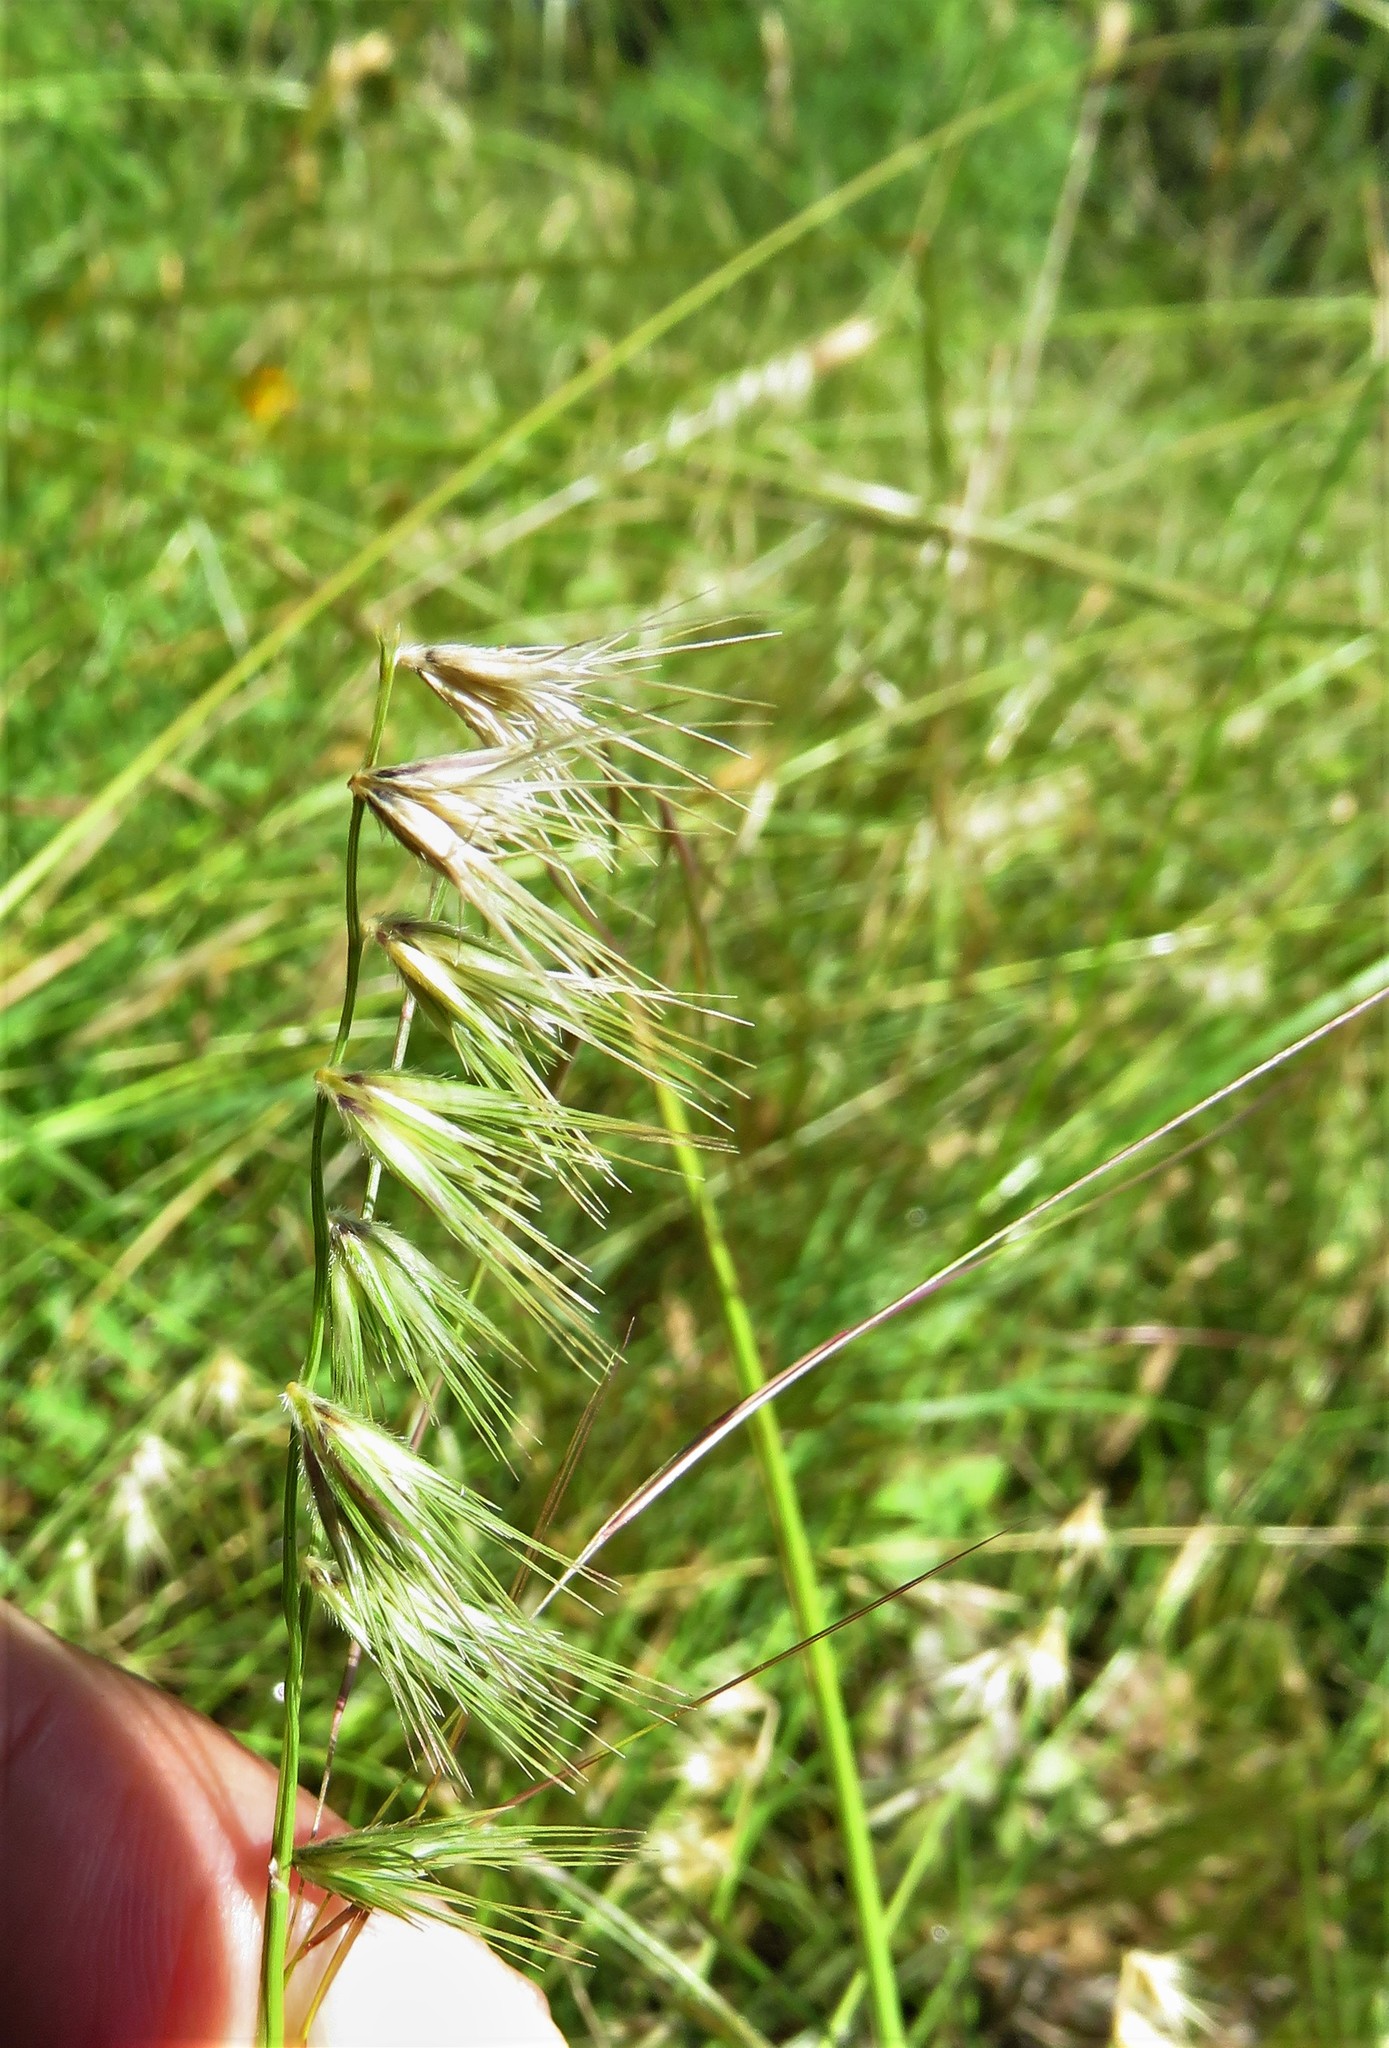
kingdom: Plantae
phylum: Tracheophyta
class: Liliopsida
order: Poales
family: Poaceae
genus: Bouteloua
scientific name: Bouteloua rigidiseta
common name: Texas grama
